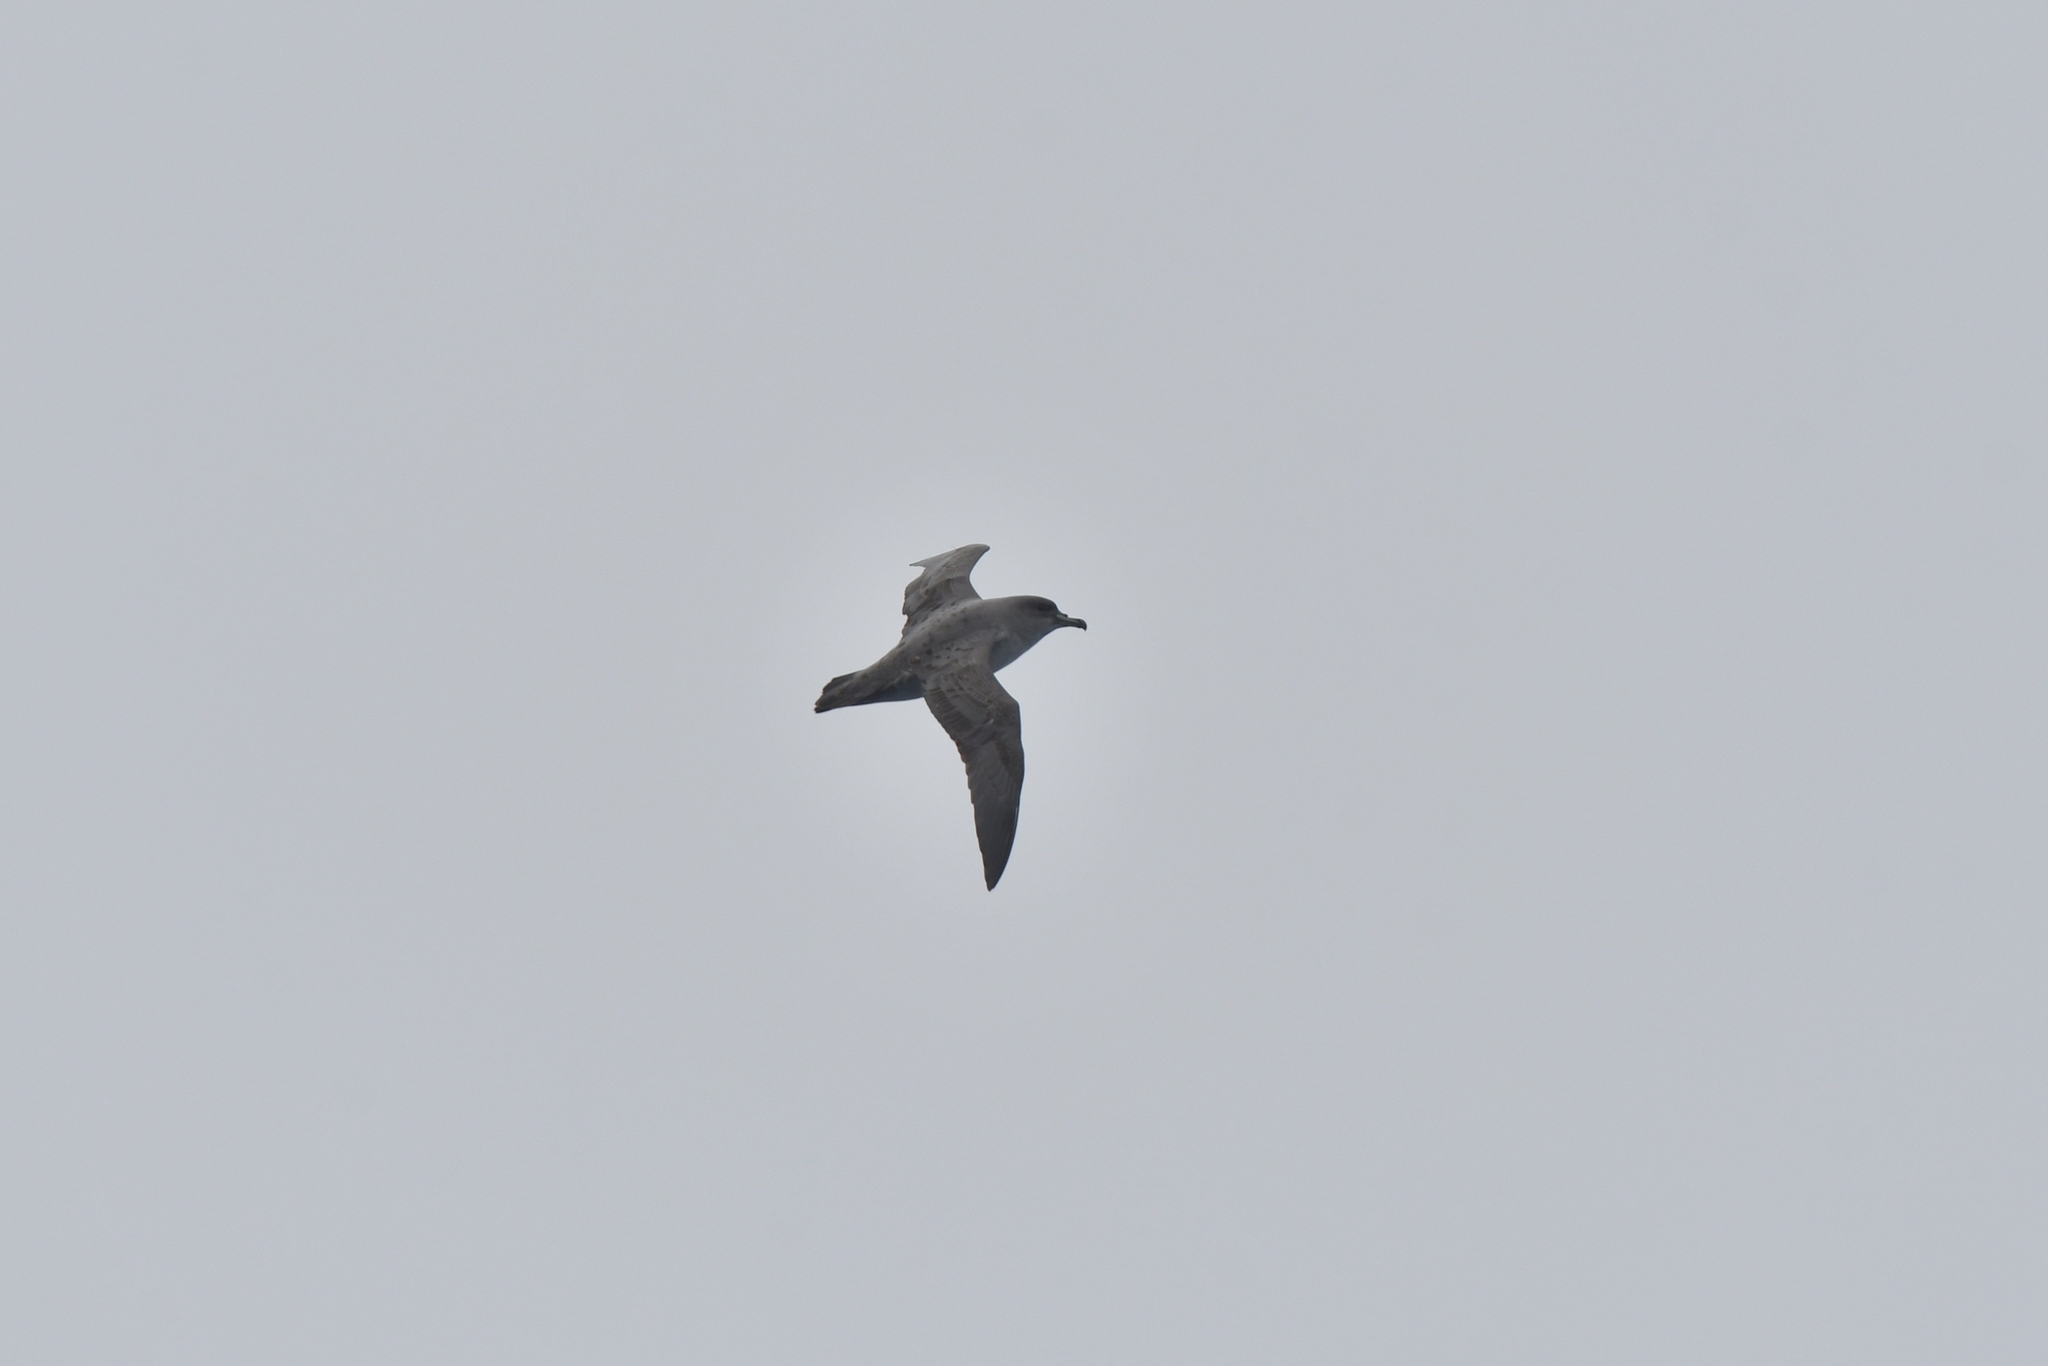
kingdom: Animalia
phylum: Chordata
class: Aves
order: Procellariiformes
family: Procellariidae
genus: Procellaria
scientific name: Procellaria cinerea
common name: Grey petrel
